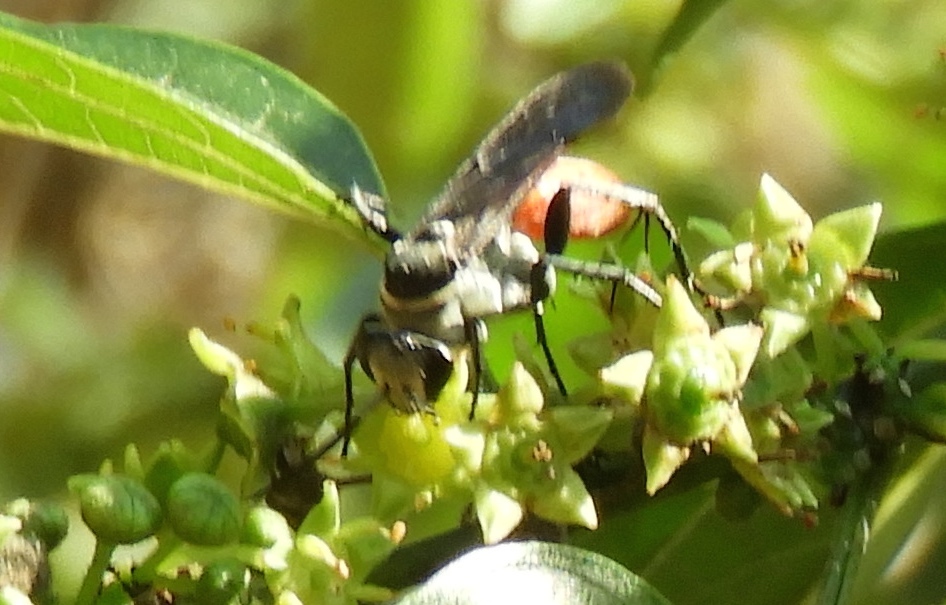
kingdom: Animalia
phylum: Arthropoda
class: Insecta
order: Hymenoptera
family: Pompilidae
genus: Xerochares
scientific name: Xerochares expulsus
